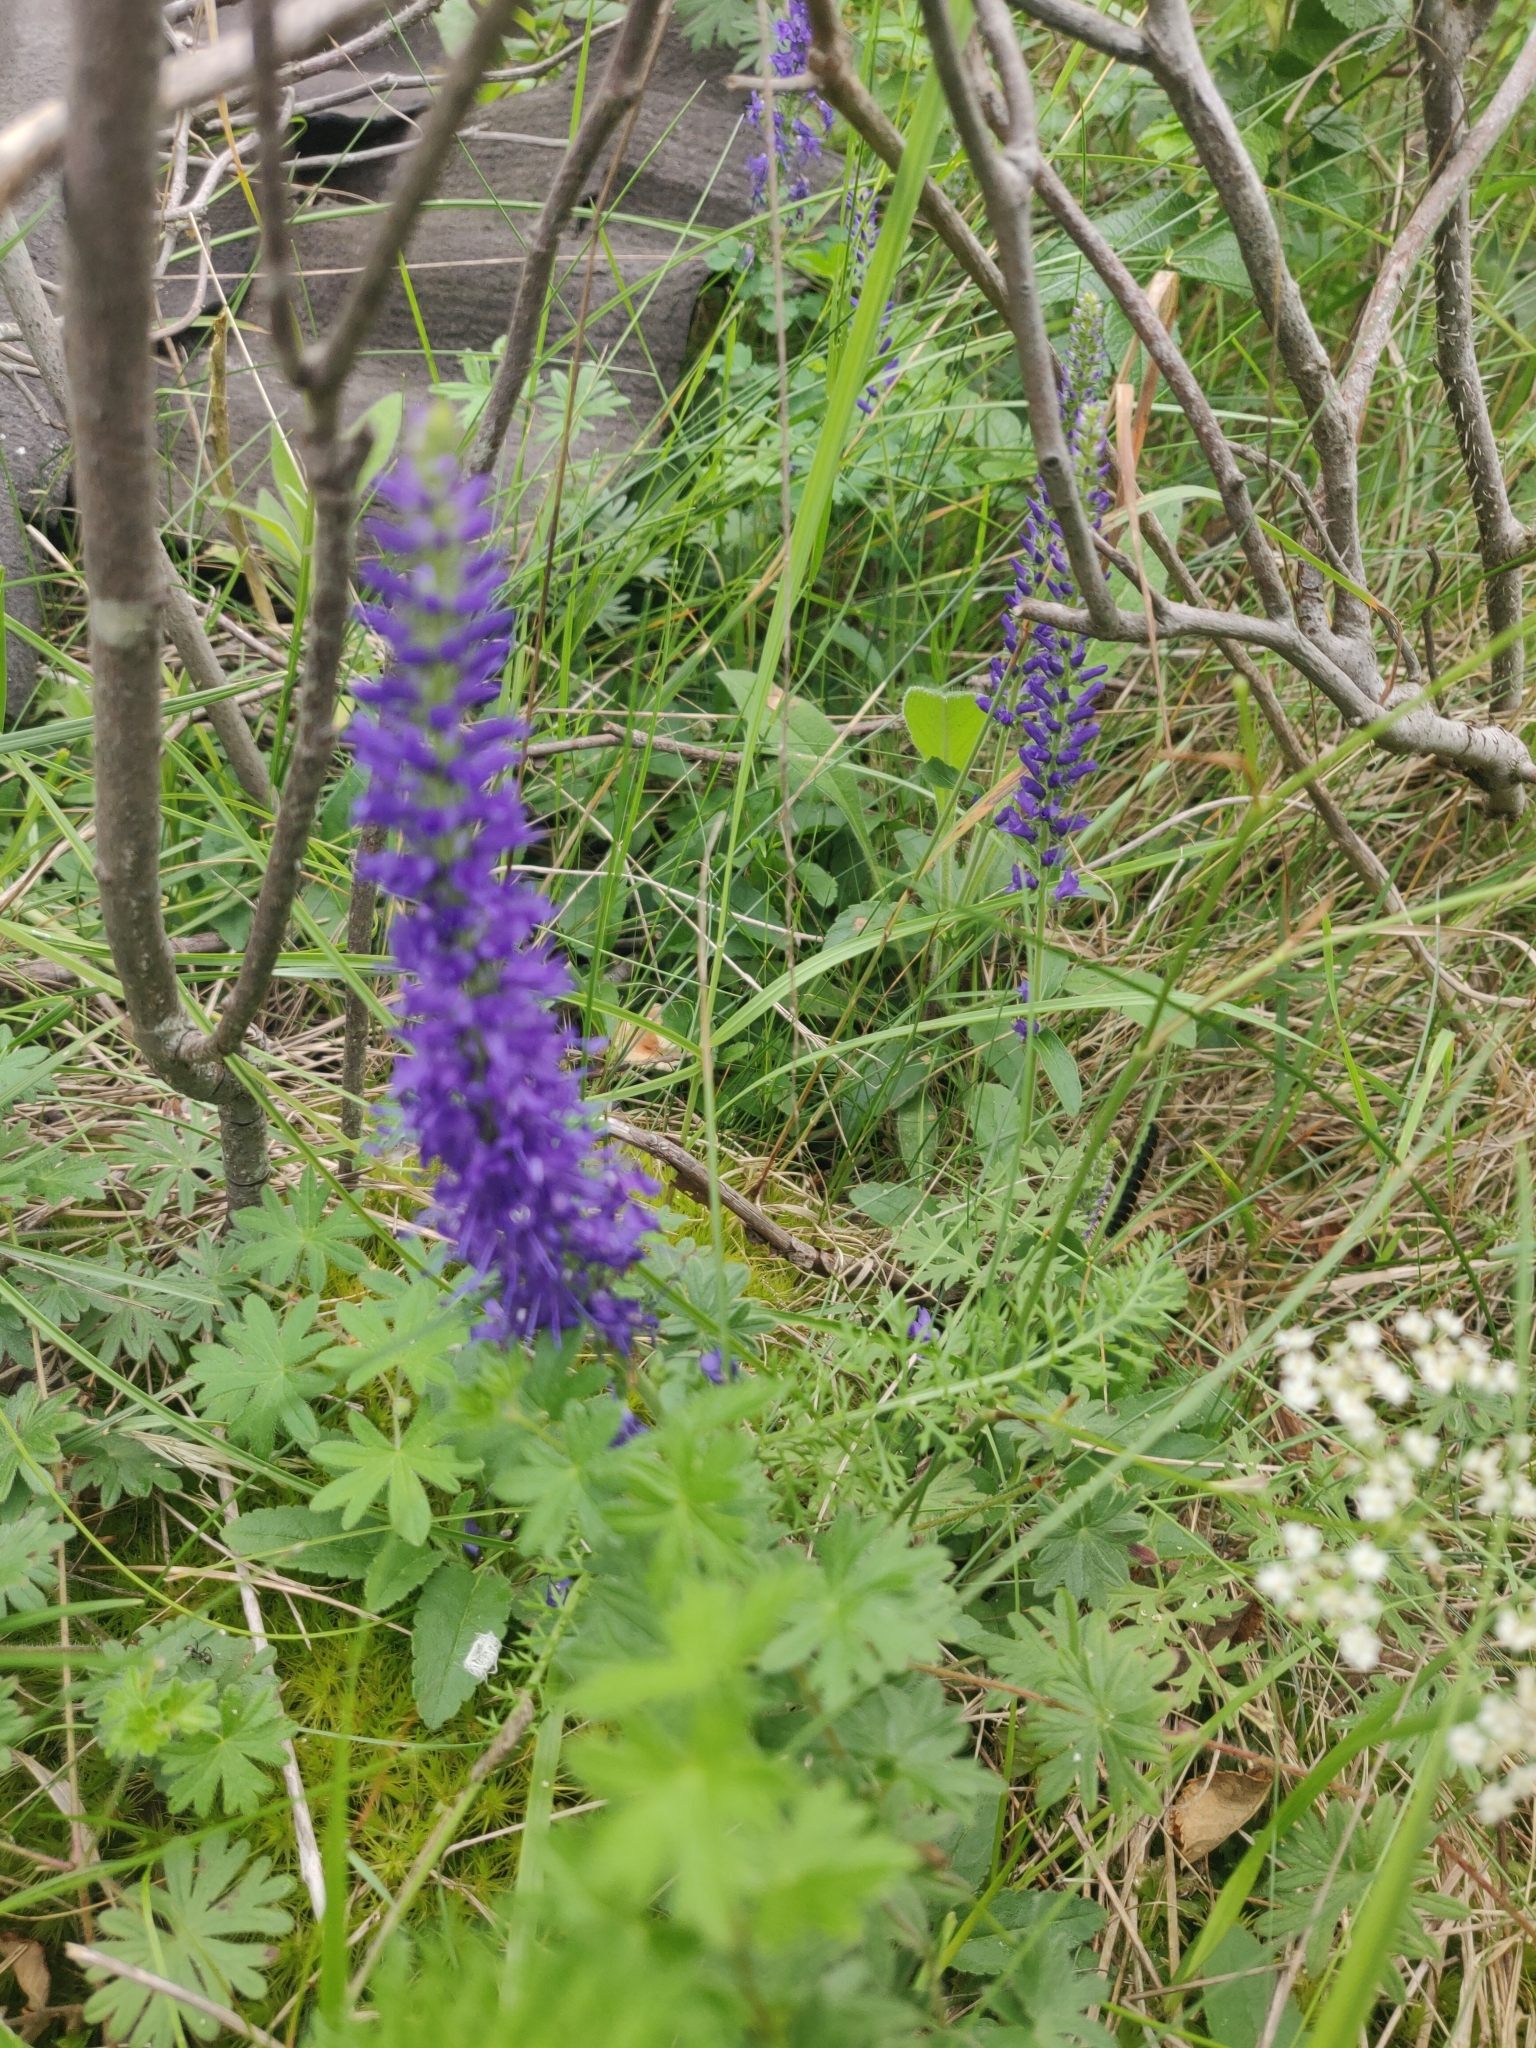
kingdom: Plantae
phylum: Tracheophyta
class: Magnoliopsida
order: Lamiales
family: Plantaginaceae
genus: Veronica
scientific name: Veronica spicata
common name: Spiked speedwell
